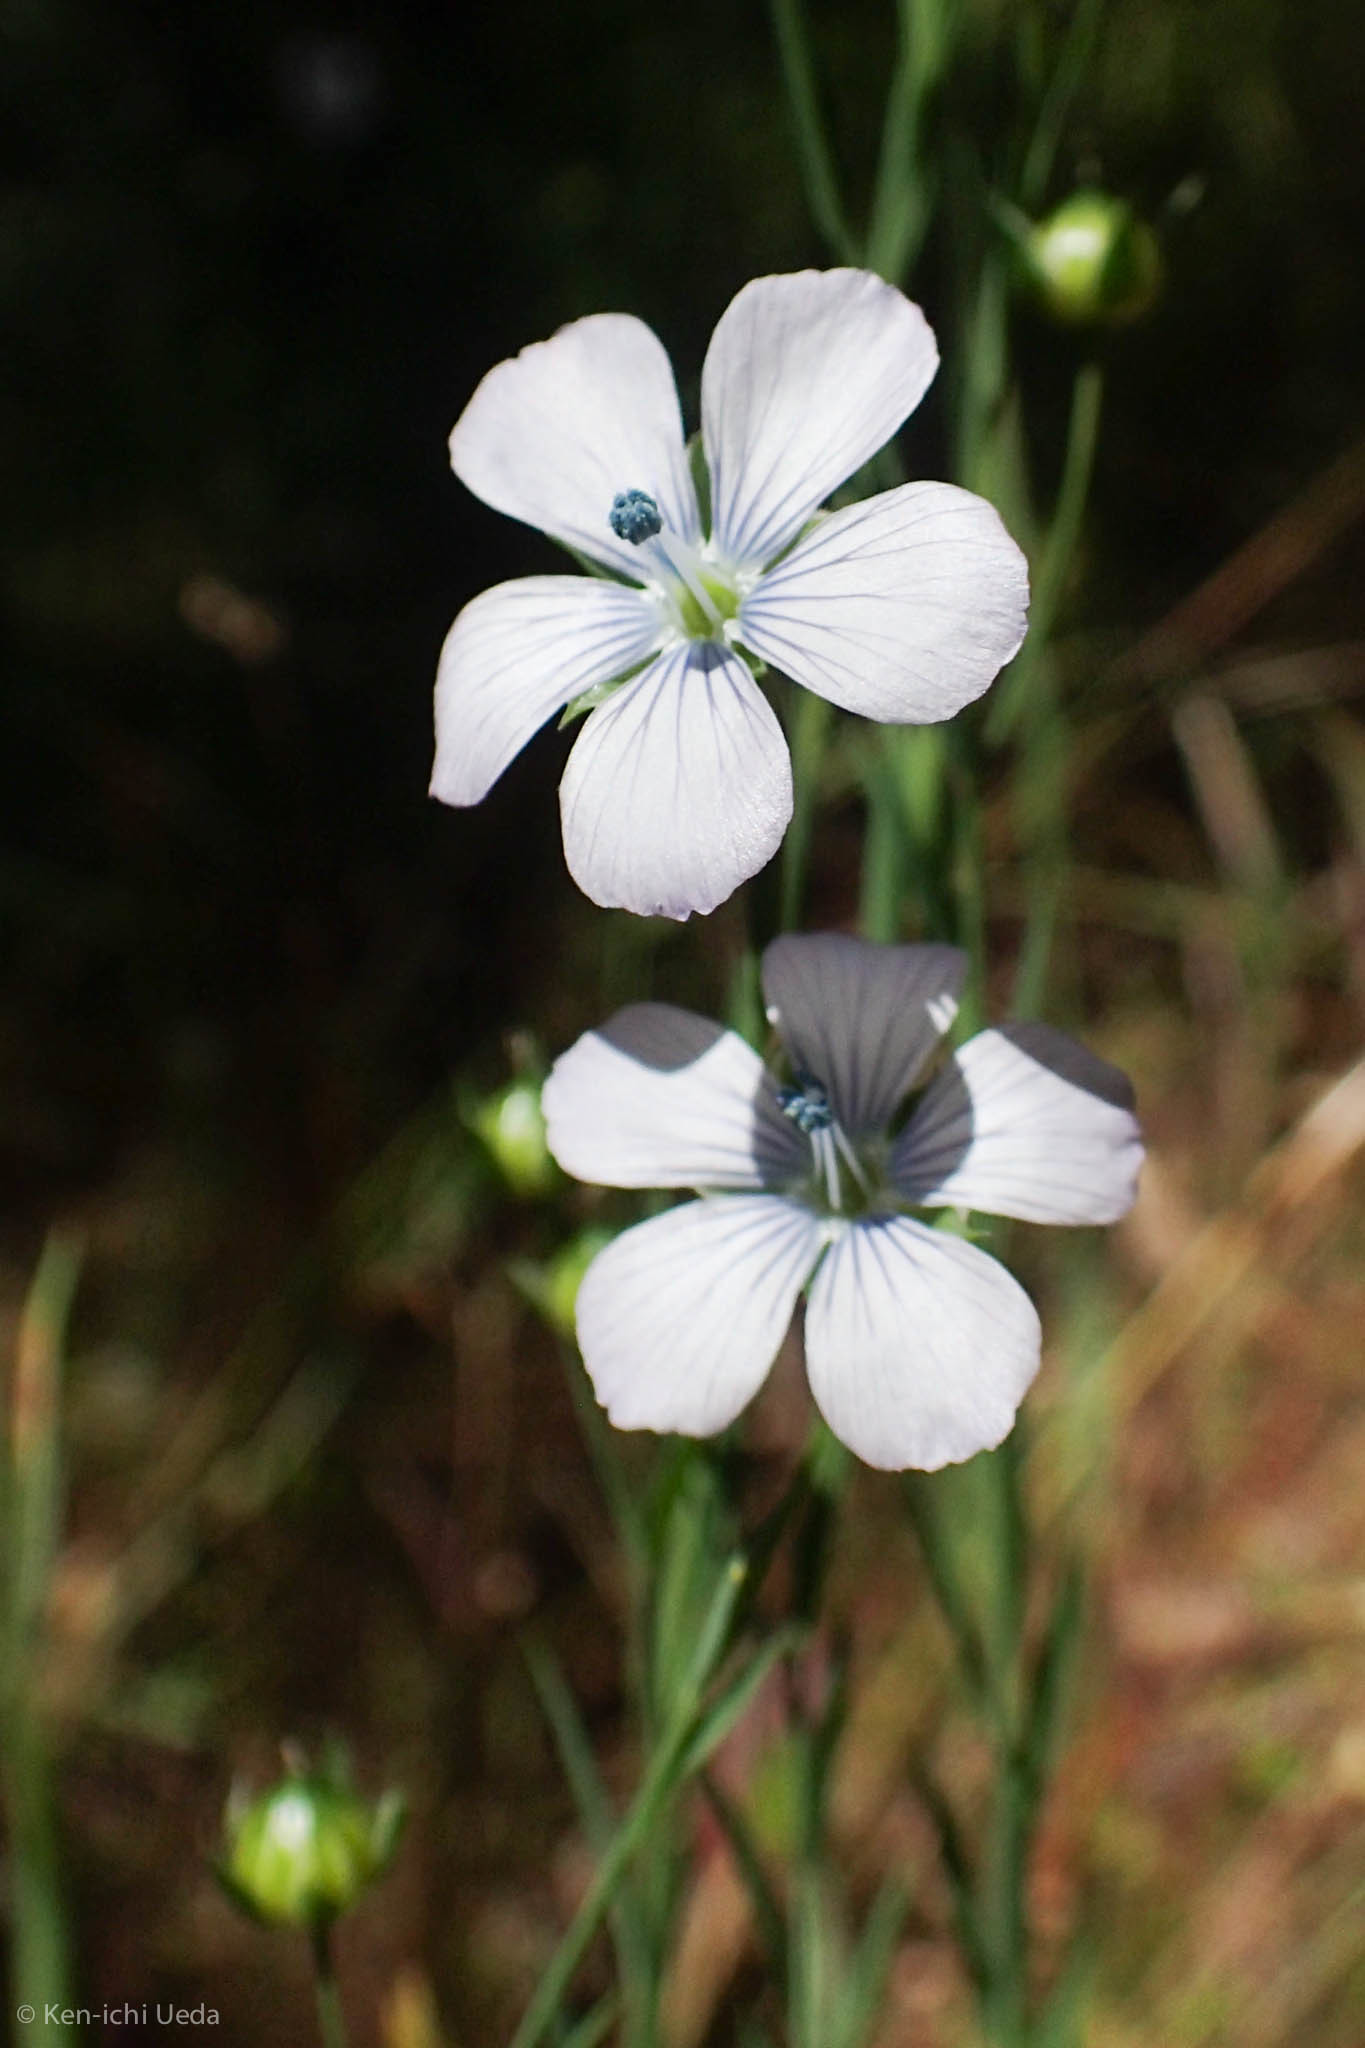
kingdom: Plantae
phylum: Tracheophyta
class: Magnoliopsida
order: Malpighiales
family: Linaceae
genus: Linum
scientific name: Linum bienne
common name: Pale flax
